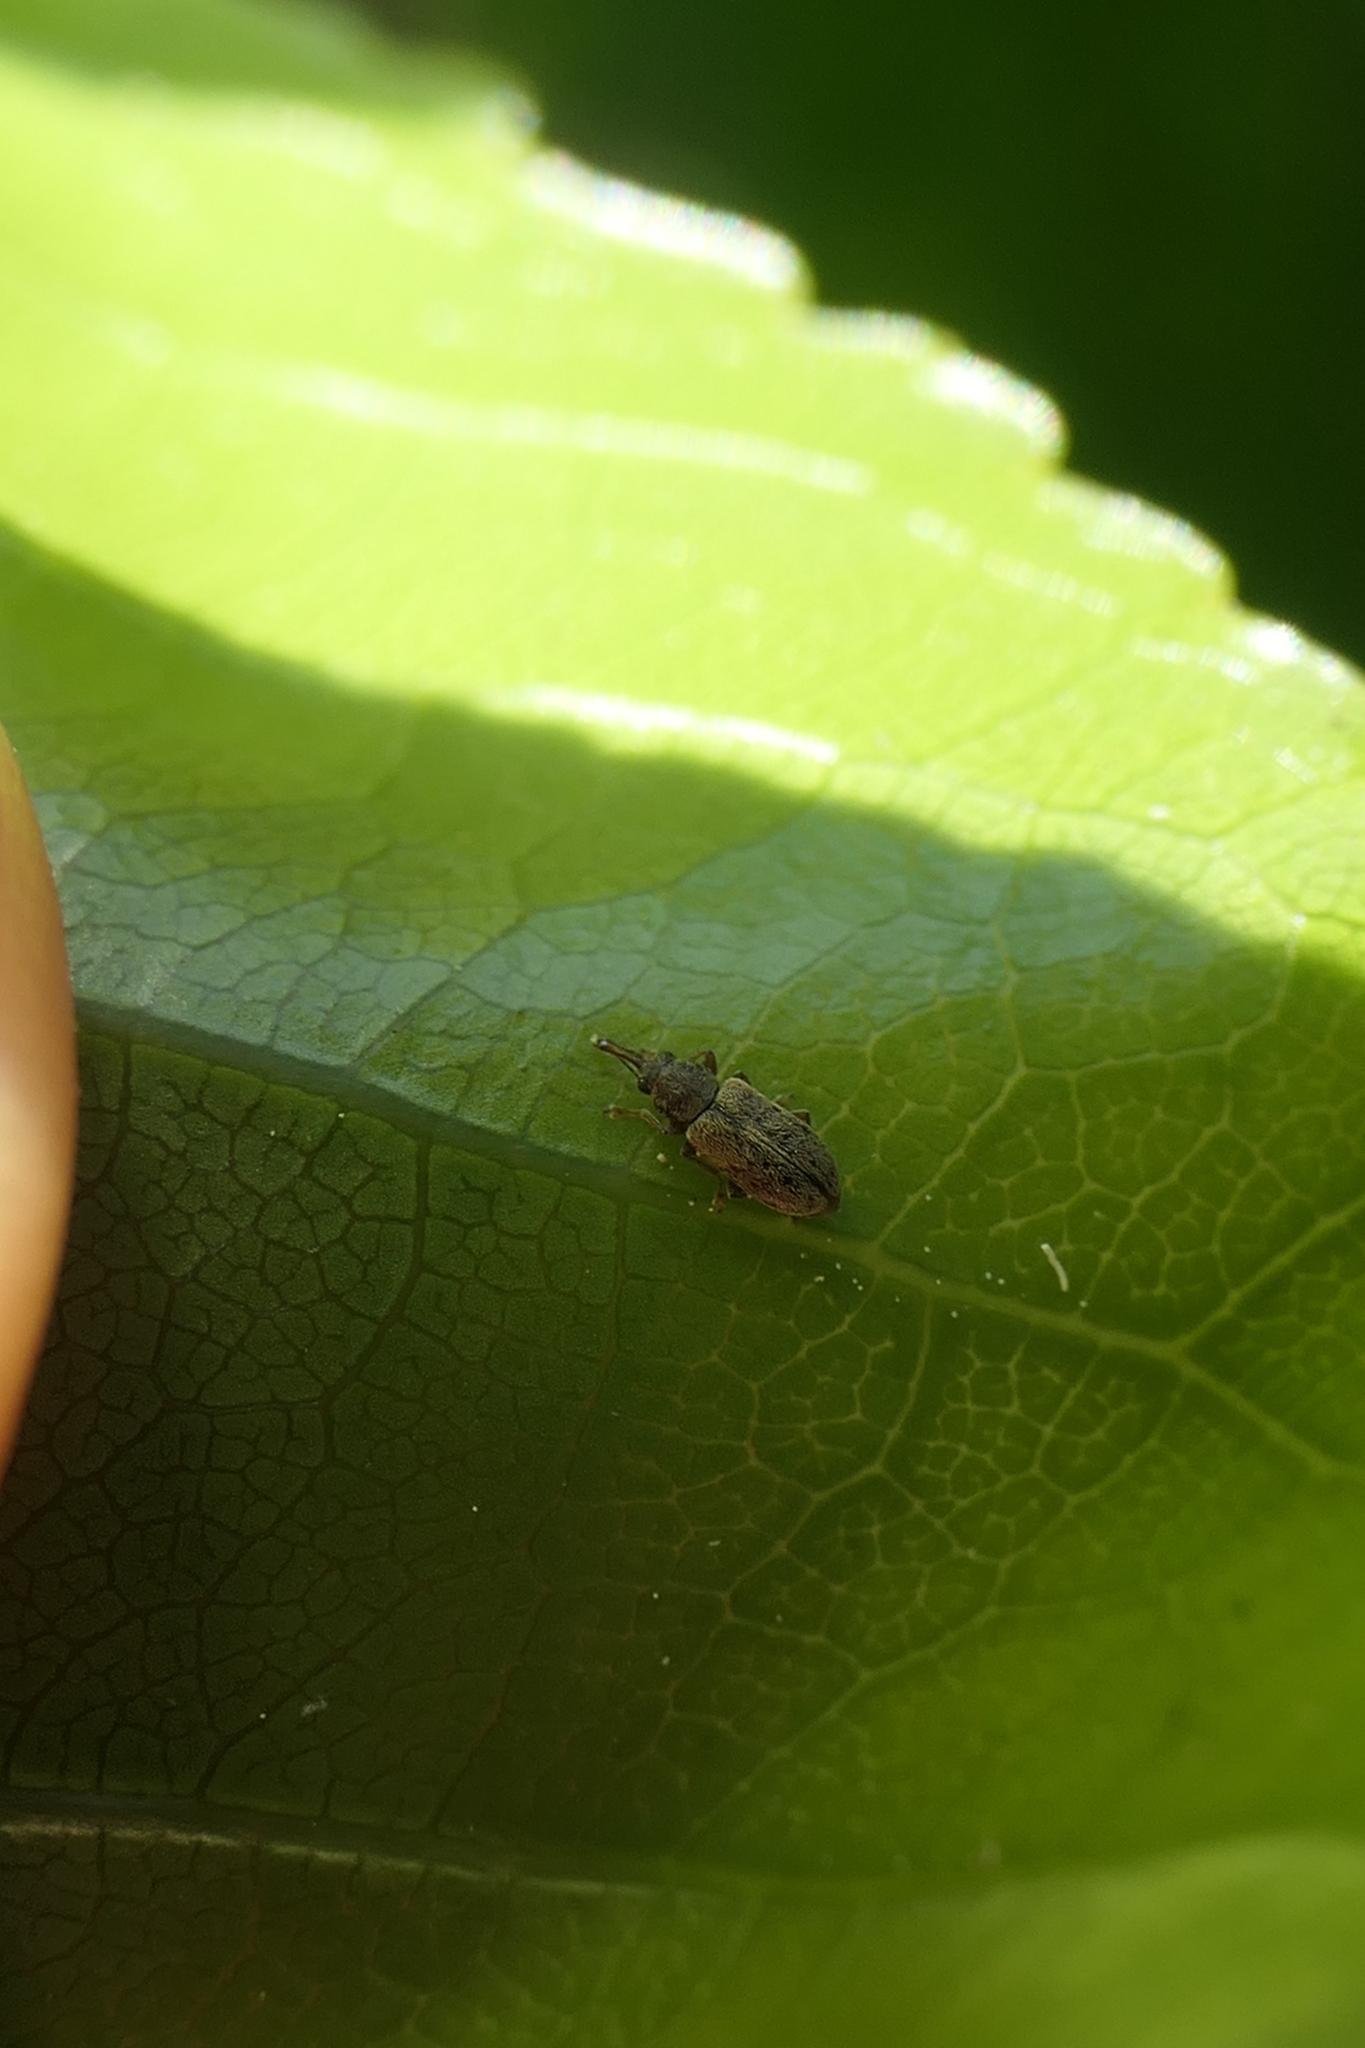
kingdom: Animalia
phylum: Arthropoda
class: Insecta
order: Coleoptera
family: Nemonychidae
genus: Rhinorhynchus
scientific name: Rhinorhynchus rufulus
